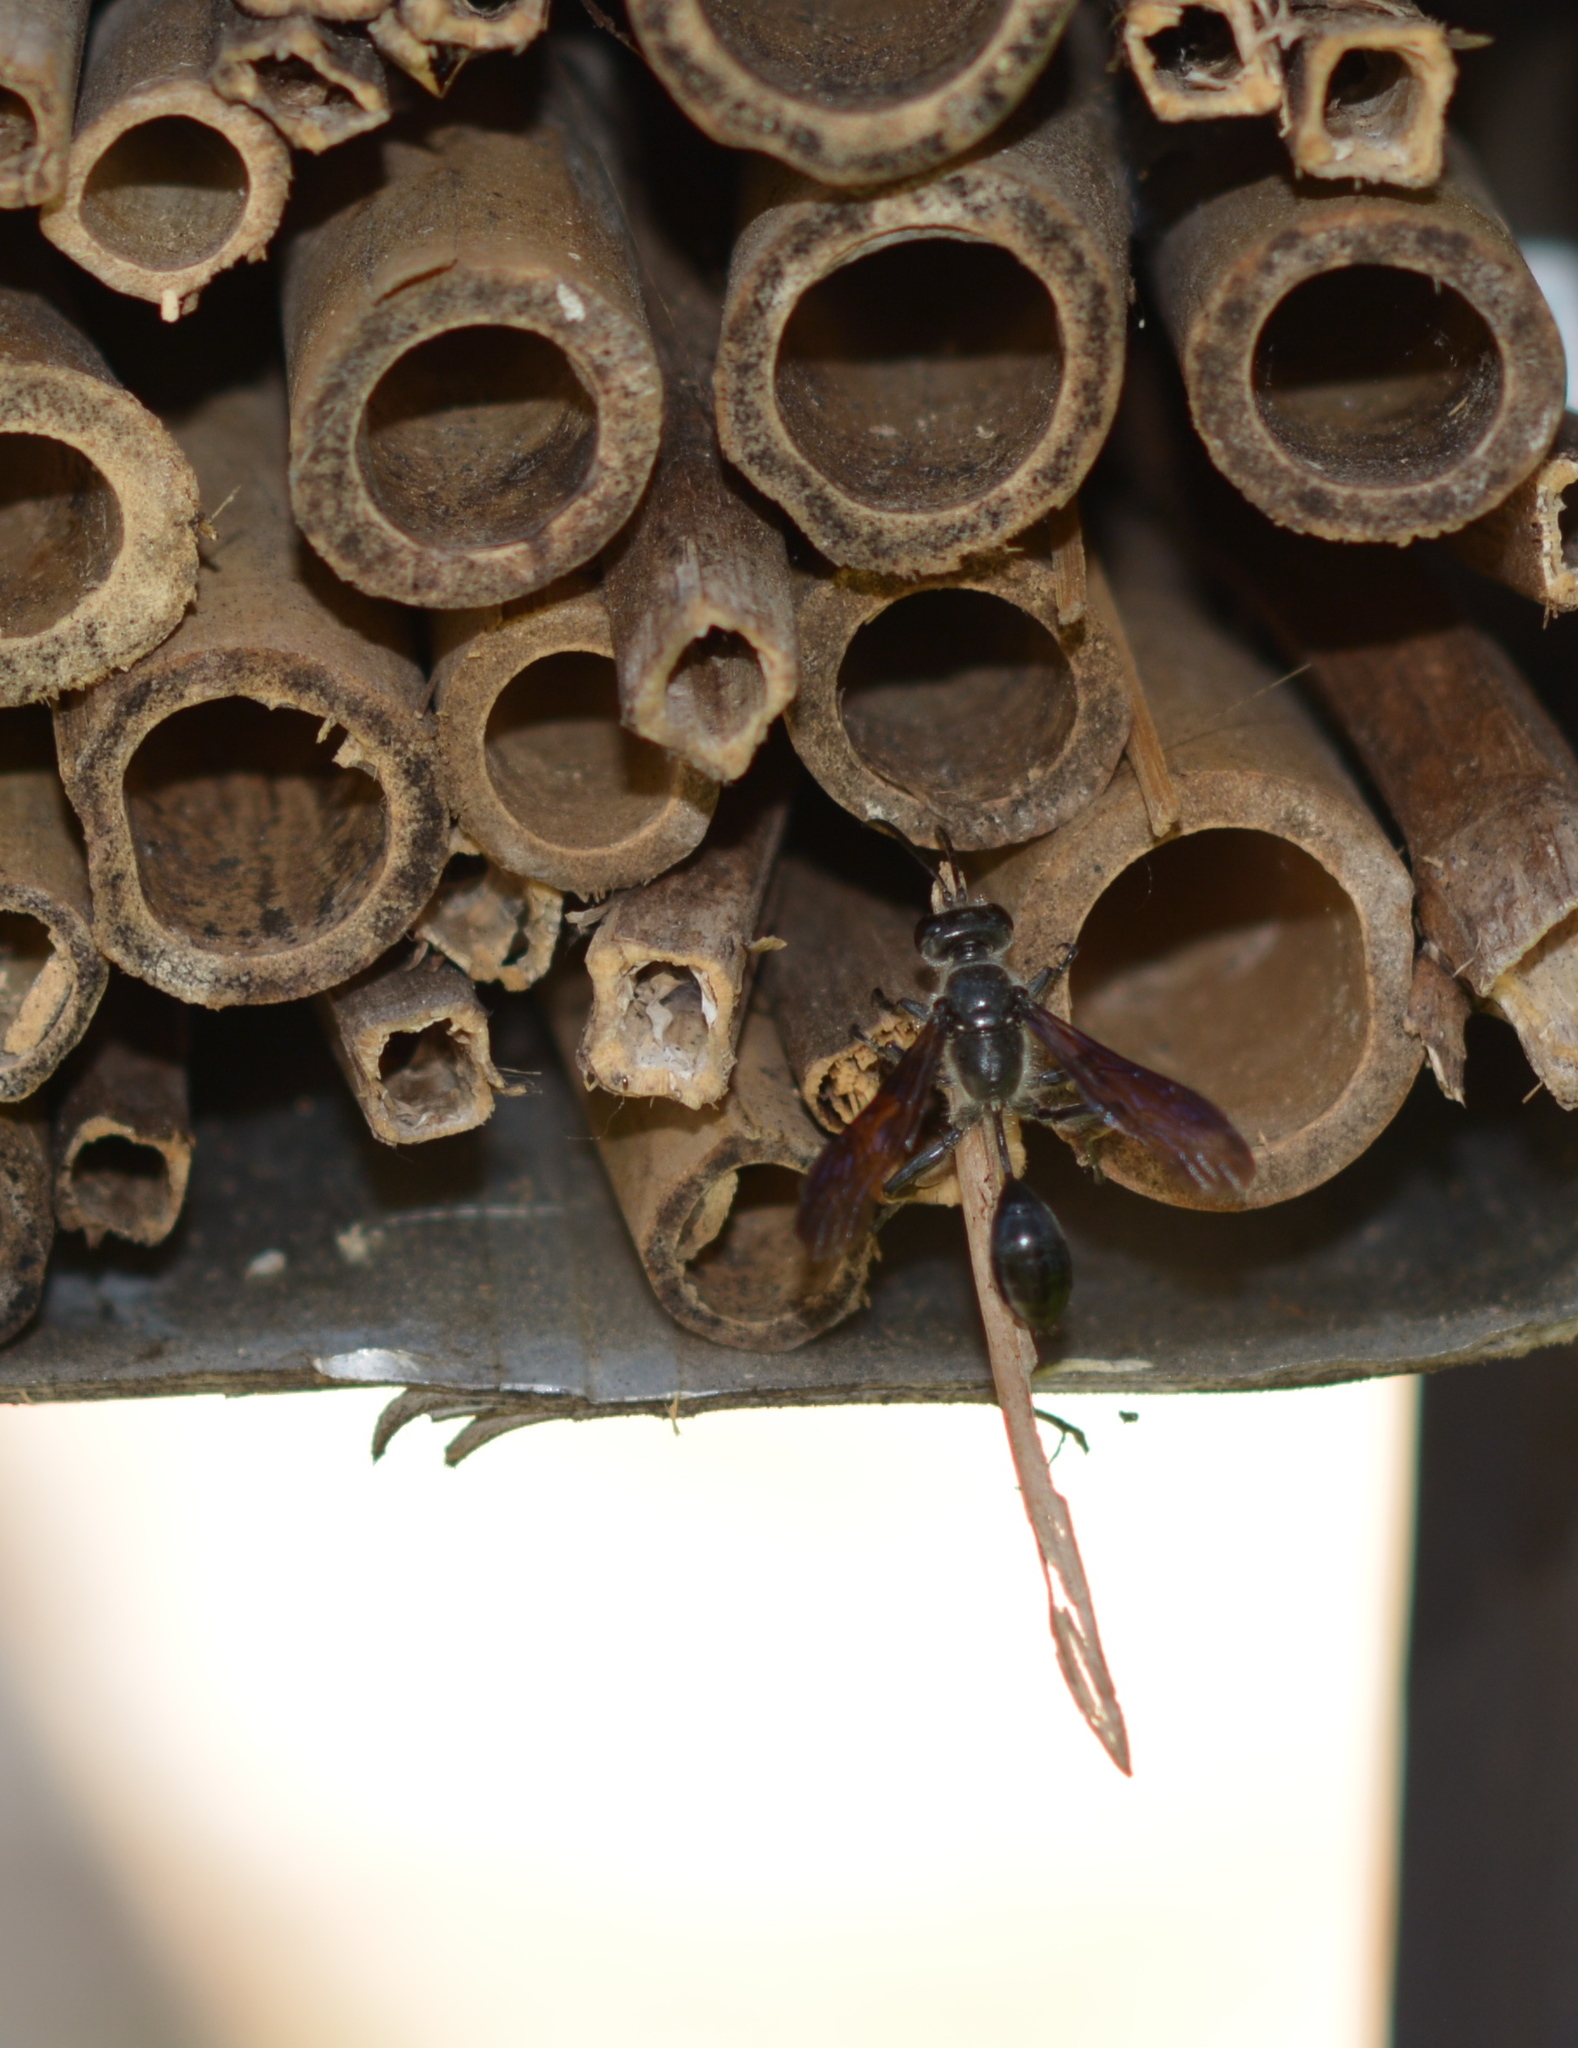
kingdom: Animalia
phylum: Arthropoda
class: Insecta
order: Hymenoptera
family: Sphecidae
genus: Isodontia
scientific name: Isodontia mexicana
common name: Mud dauber
